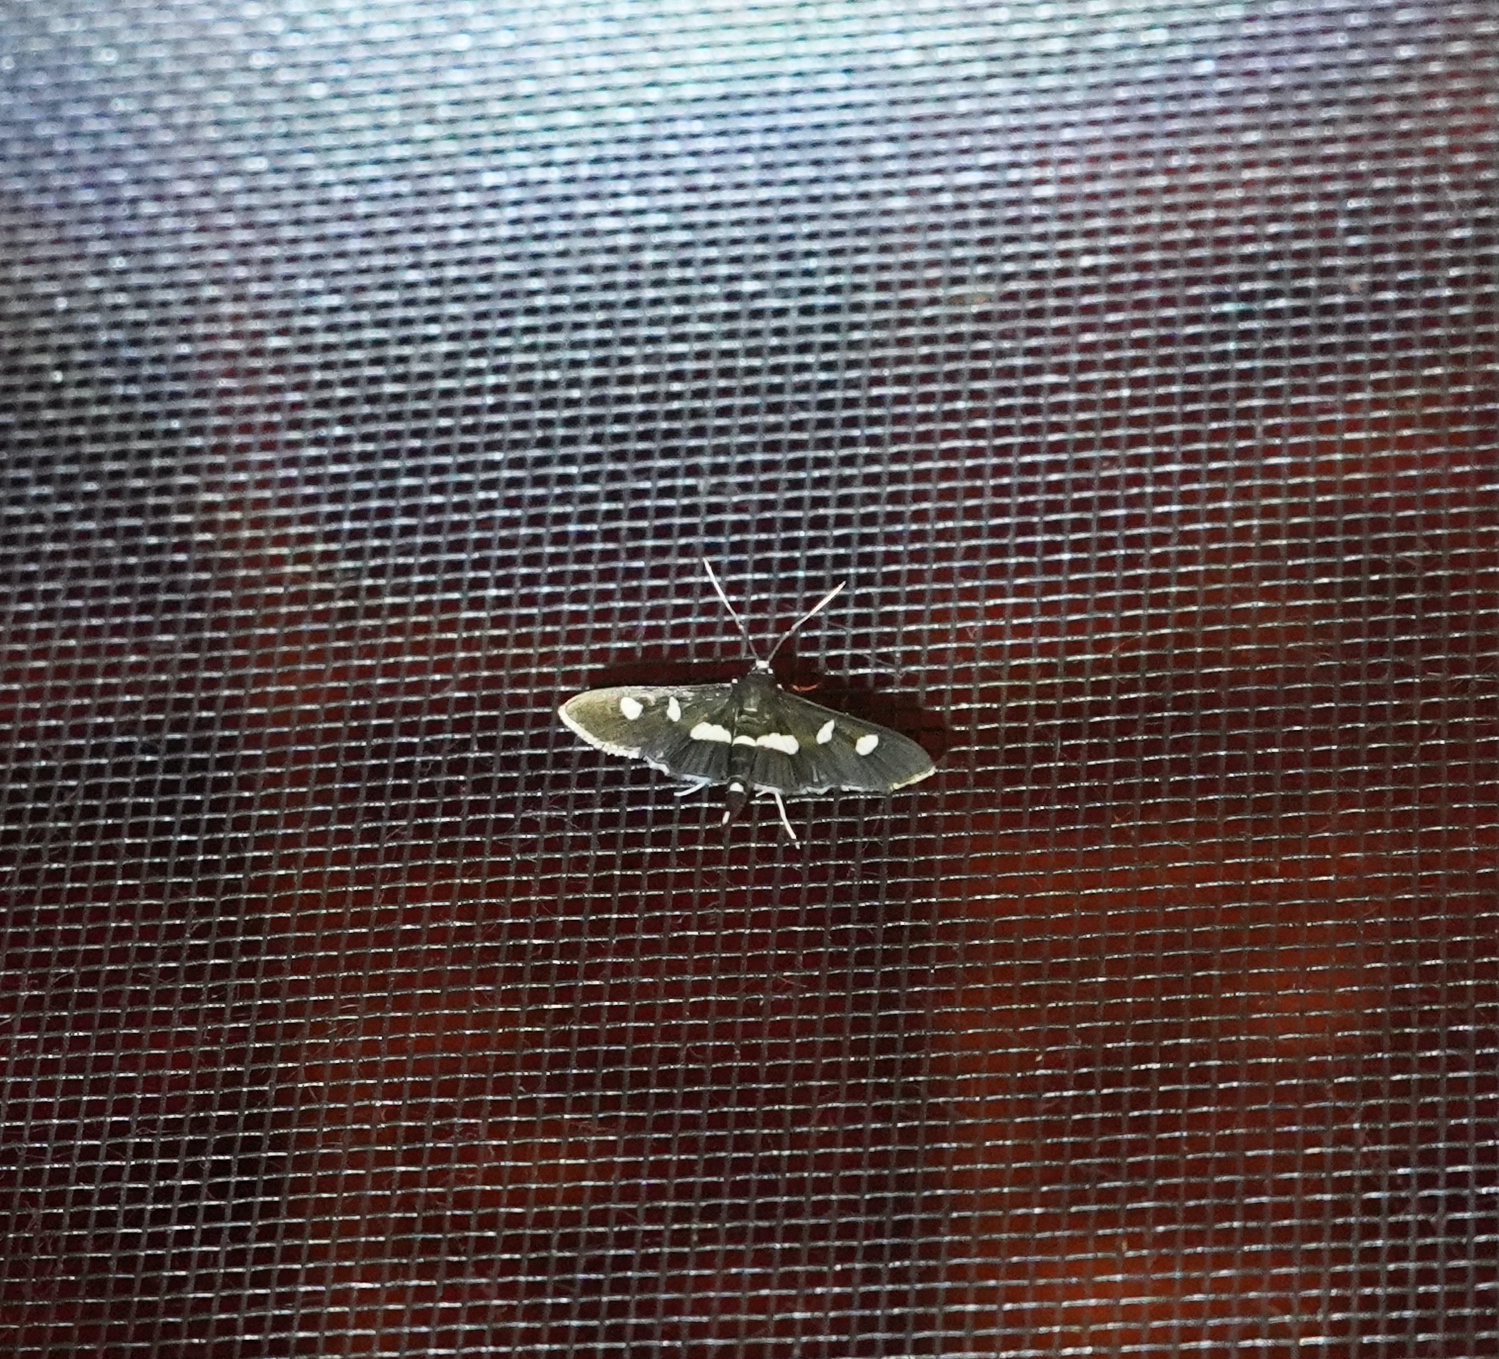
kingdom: Animalia
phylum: Arthropoda
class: Insecta
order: Lepidoptera
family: Crambidae
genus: Desmia
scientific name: Desmia
